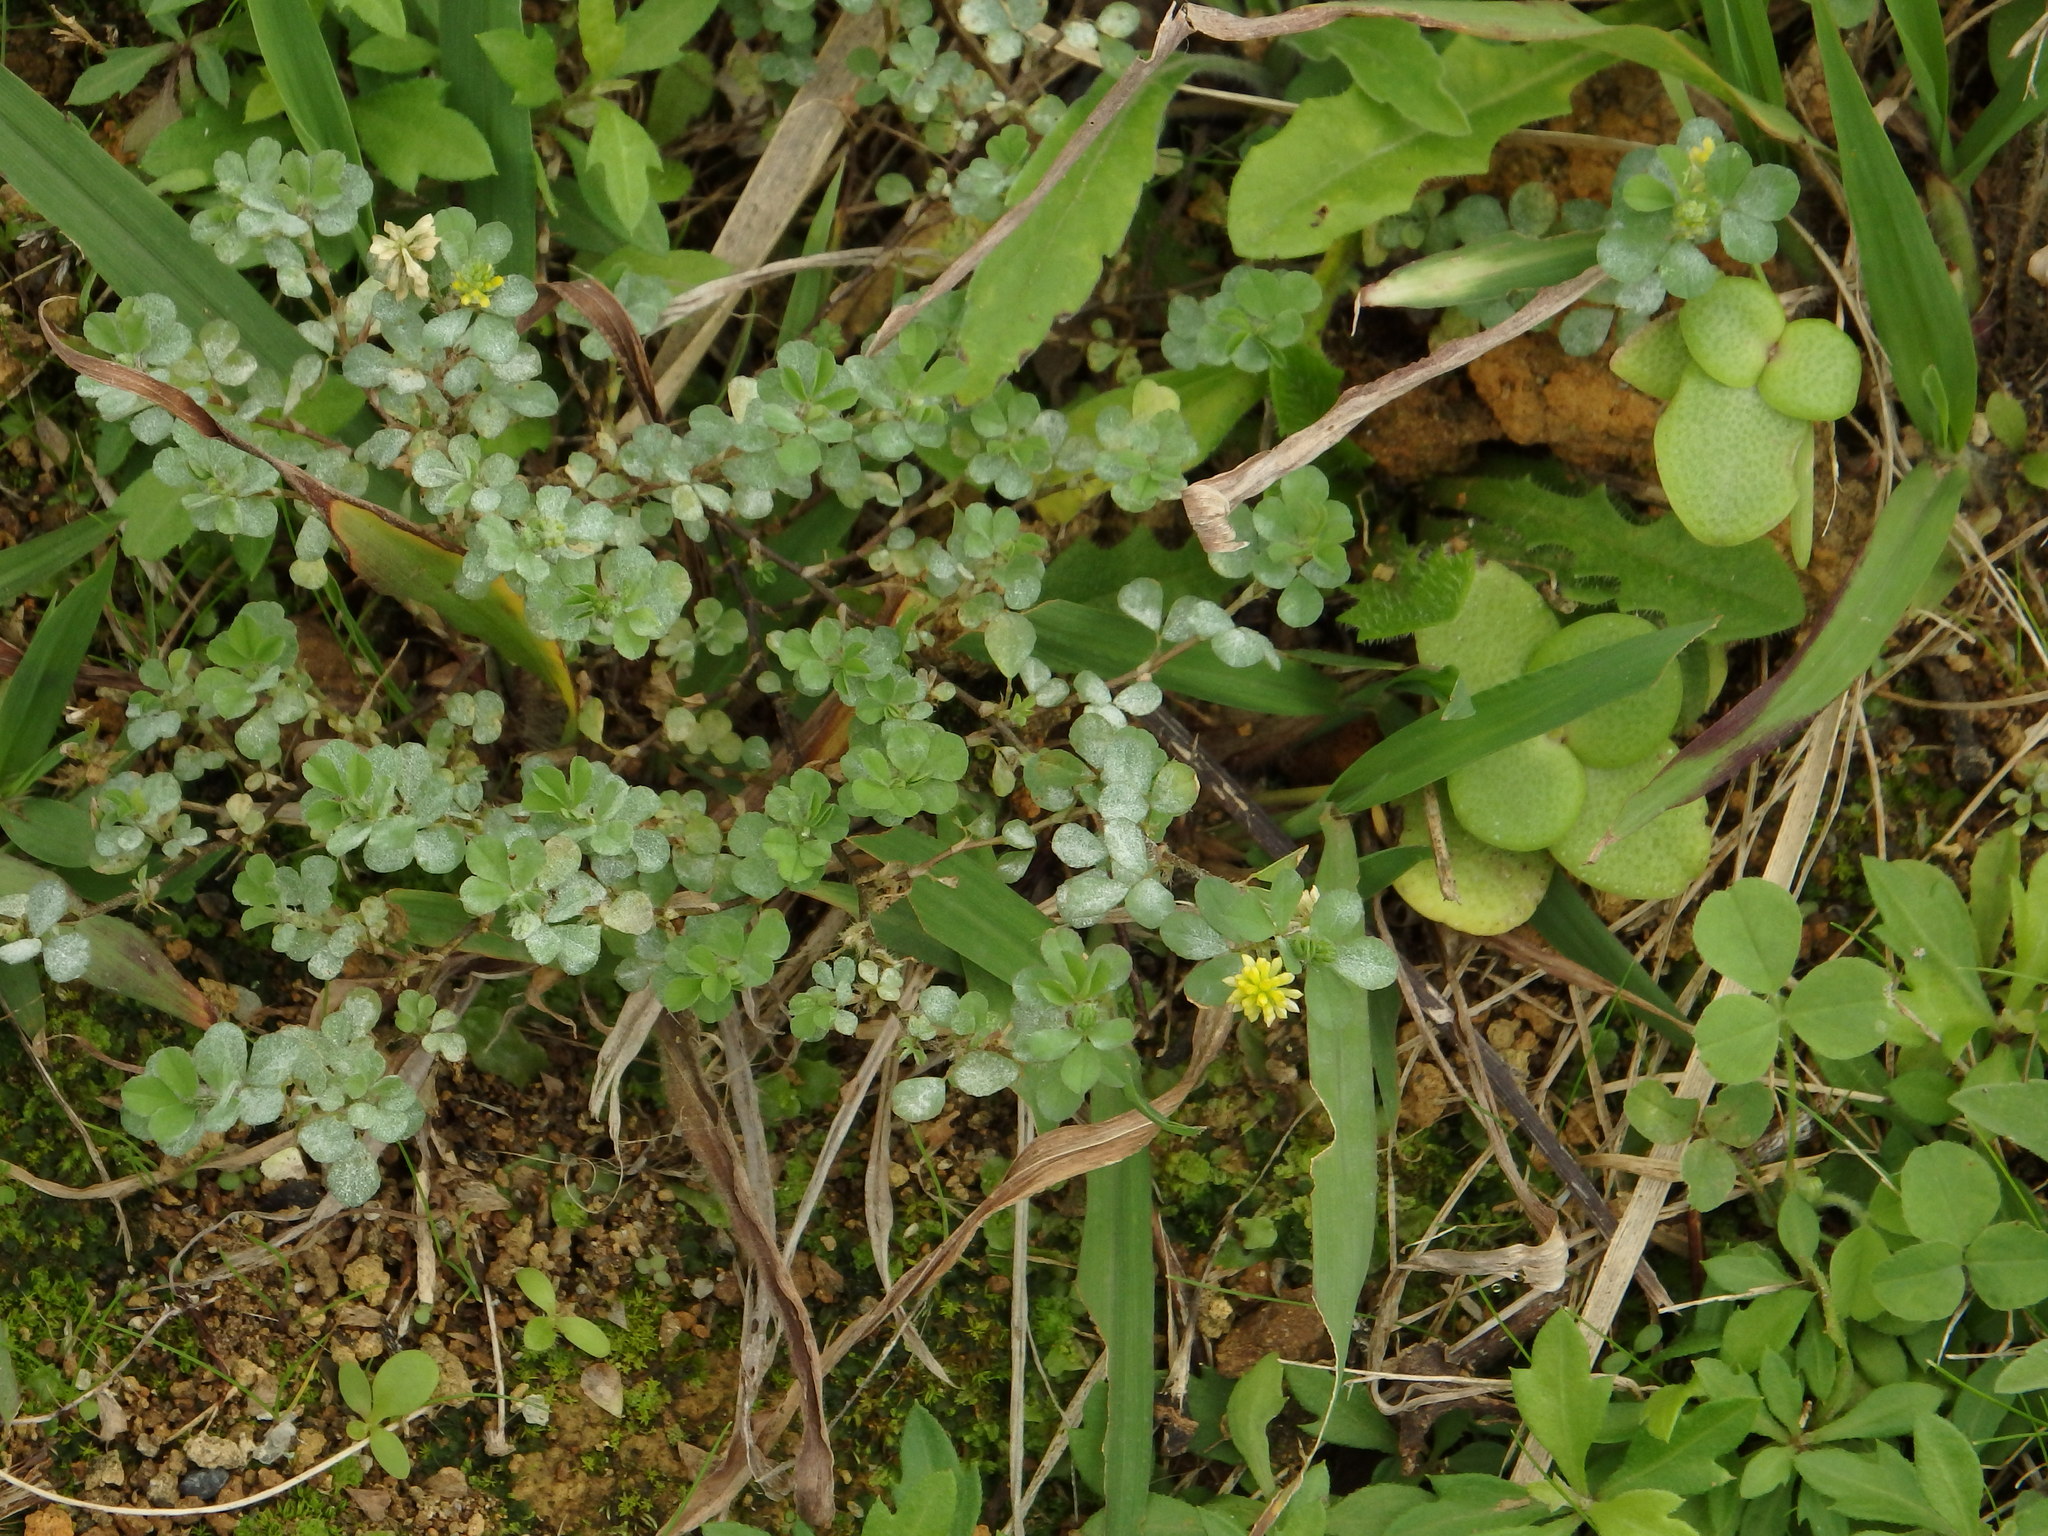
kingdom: Plantae
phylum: Tracheophyta
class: Magnoliopsida
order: Fabales
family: Fabaceae
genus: Trifolium
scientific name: Trifolium dubium
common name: Suckling clover
